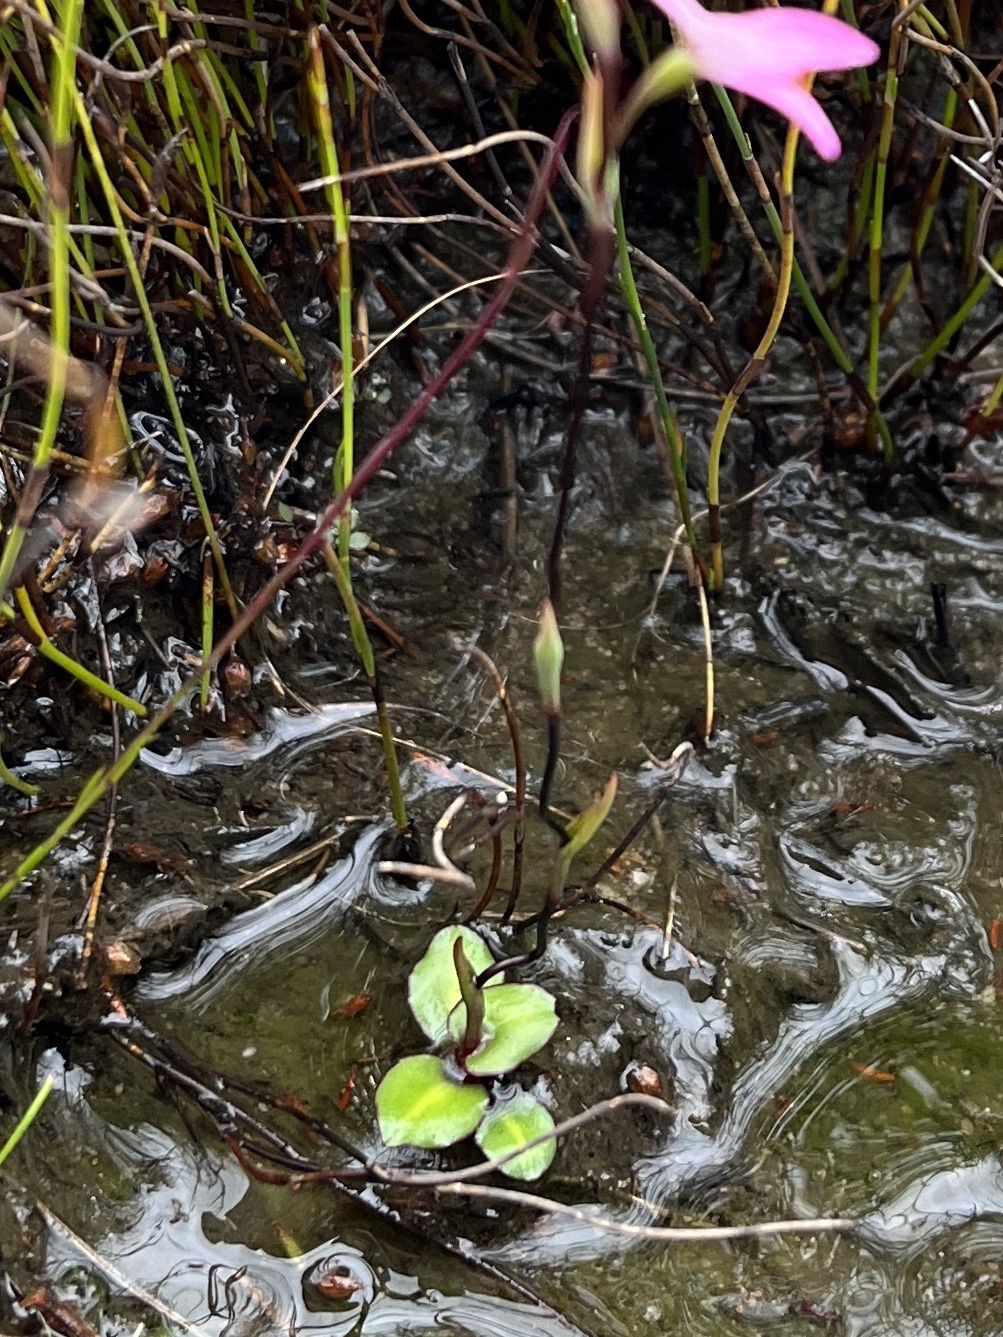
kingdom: Plantae
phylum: Tracheophyta
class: Liliopsida
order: Asparagales
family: Orchidaceae
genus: Disa
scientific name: Disa obliqua
